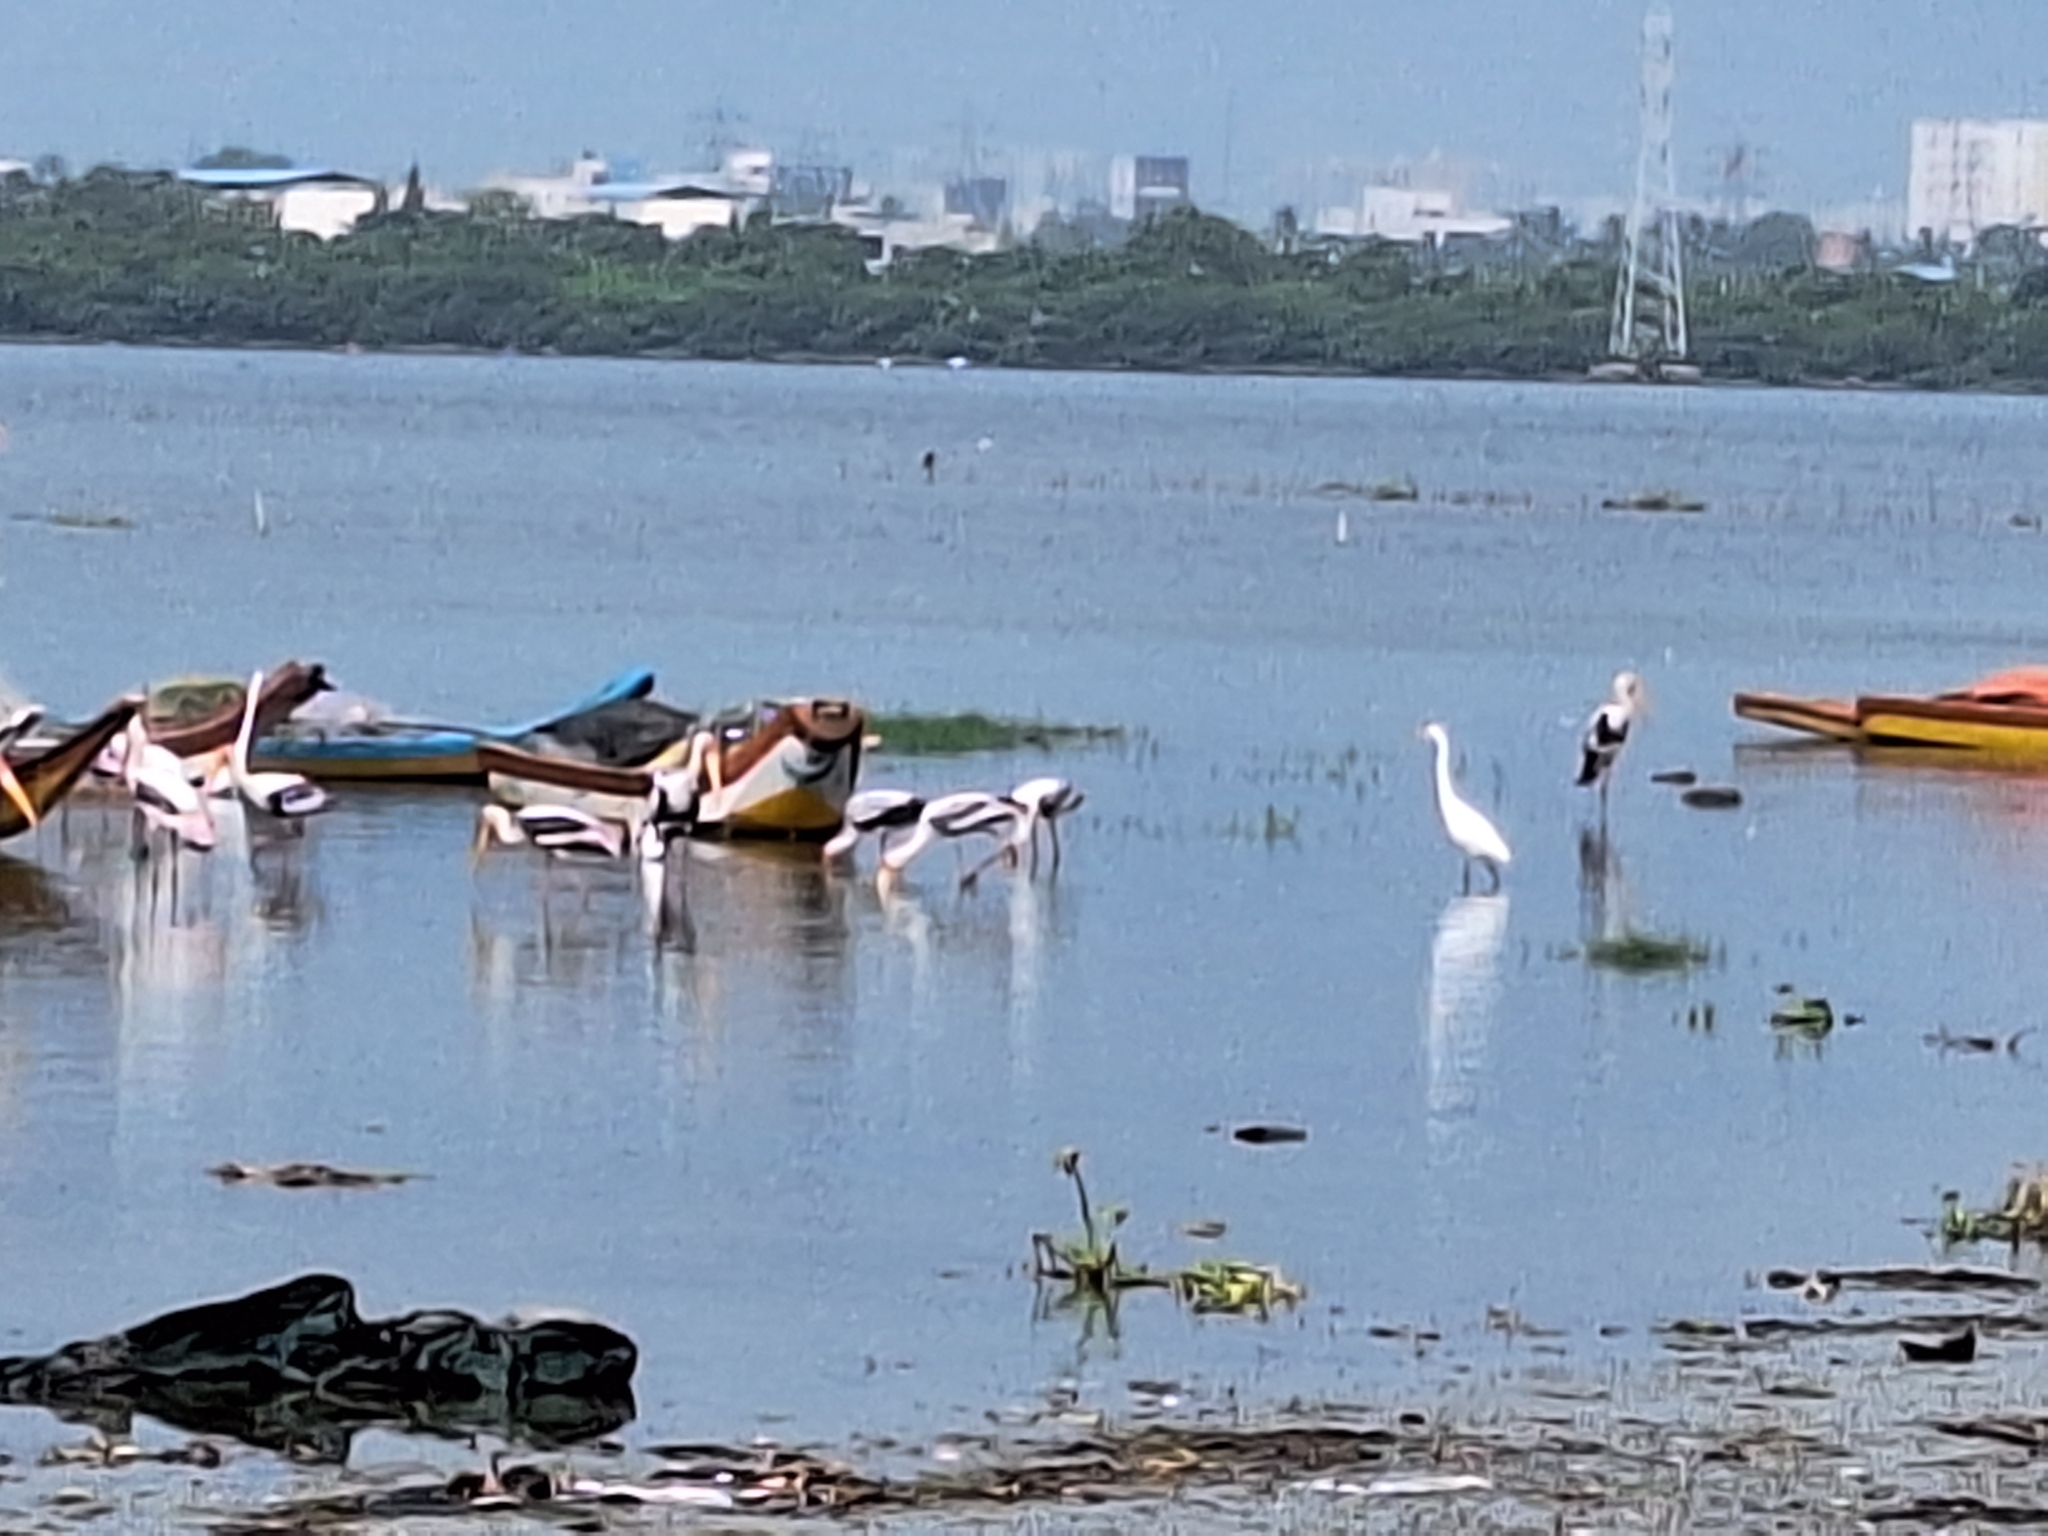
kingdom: Animalia
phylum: Chordata
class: Aves
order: Pelecaniformes
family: Ardeidae
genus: Ardea
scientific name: Ardea alba
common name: Great egret
